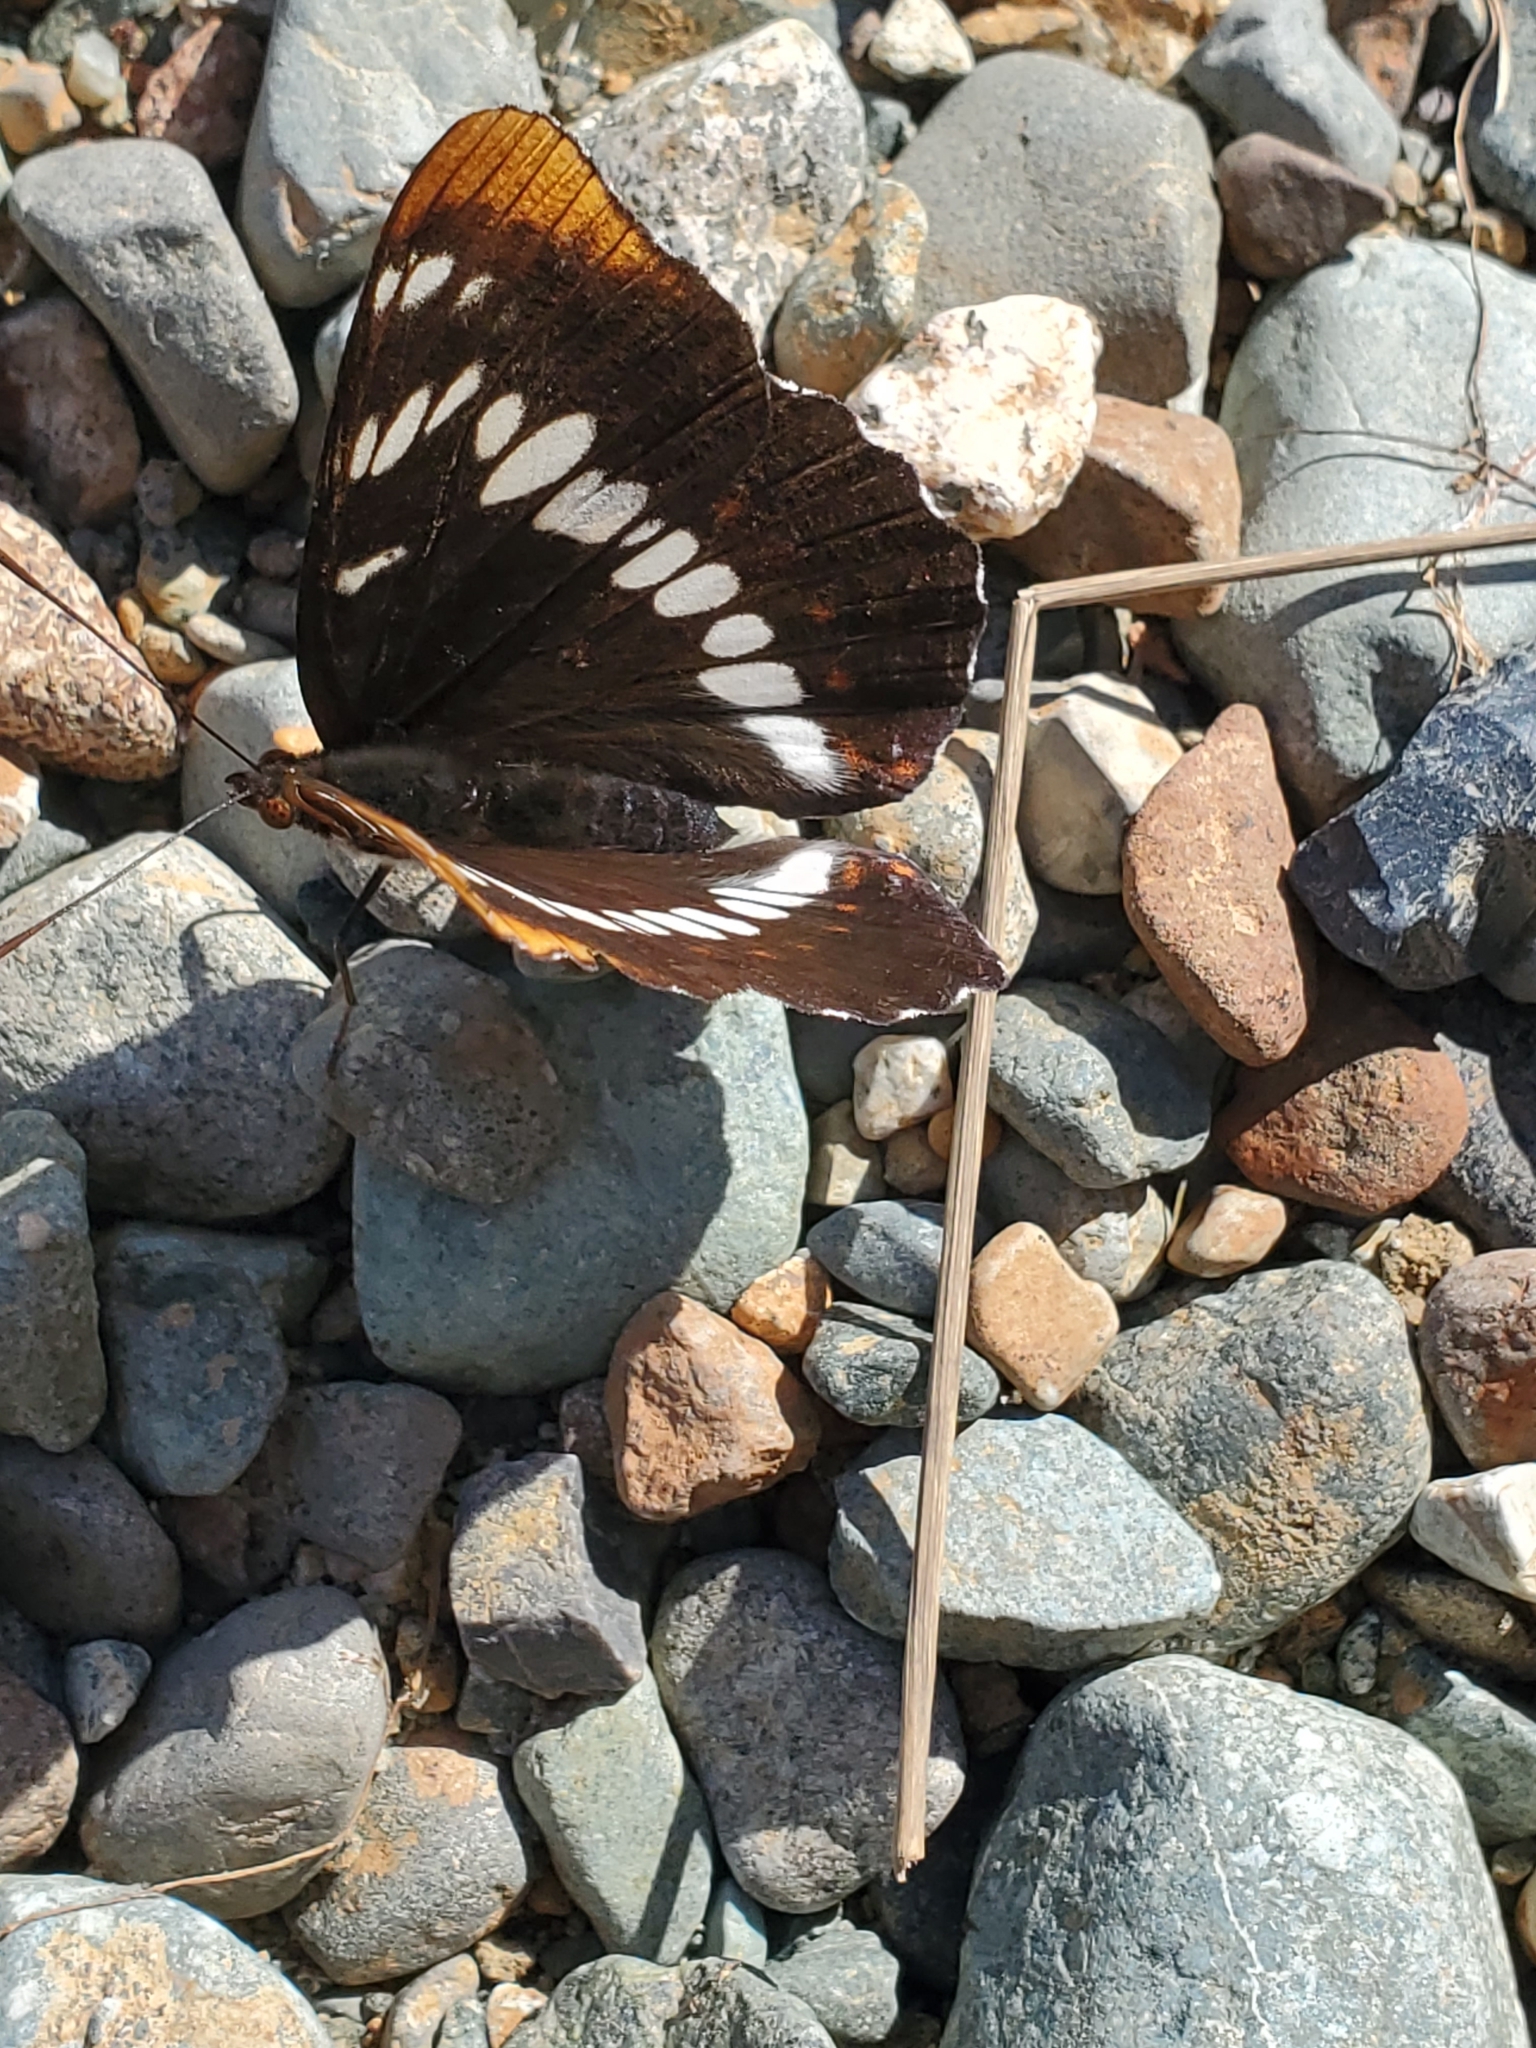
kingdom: Animalia
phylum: Arthropoda
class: Insecta
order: Lepidoptera
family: Nymphalidae
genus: Limenitis
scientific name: Limenitis lorquini
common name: Lorquin's admiral
